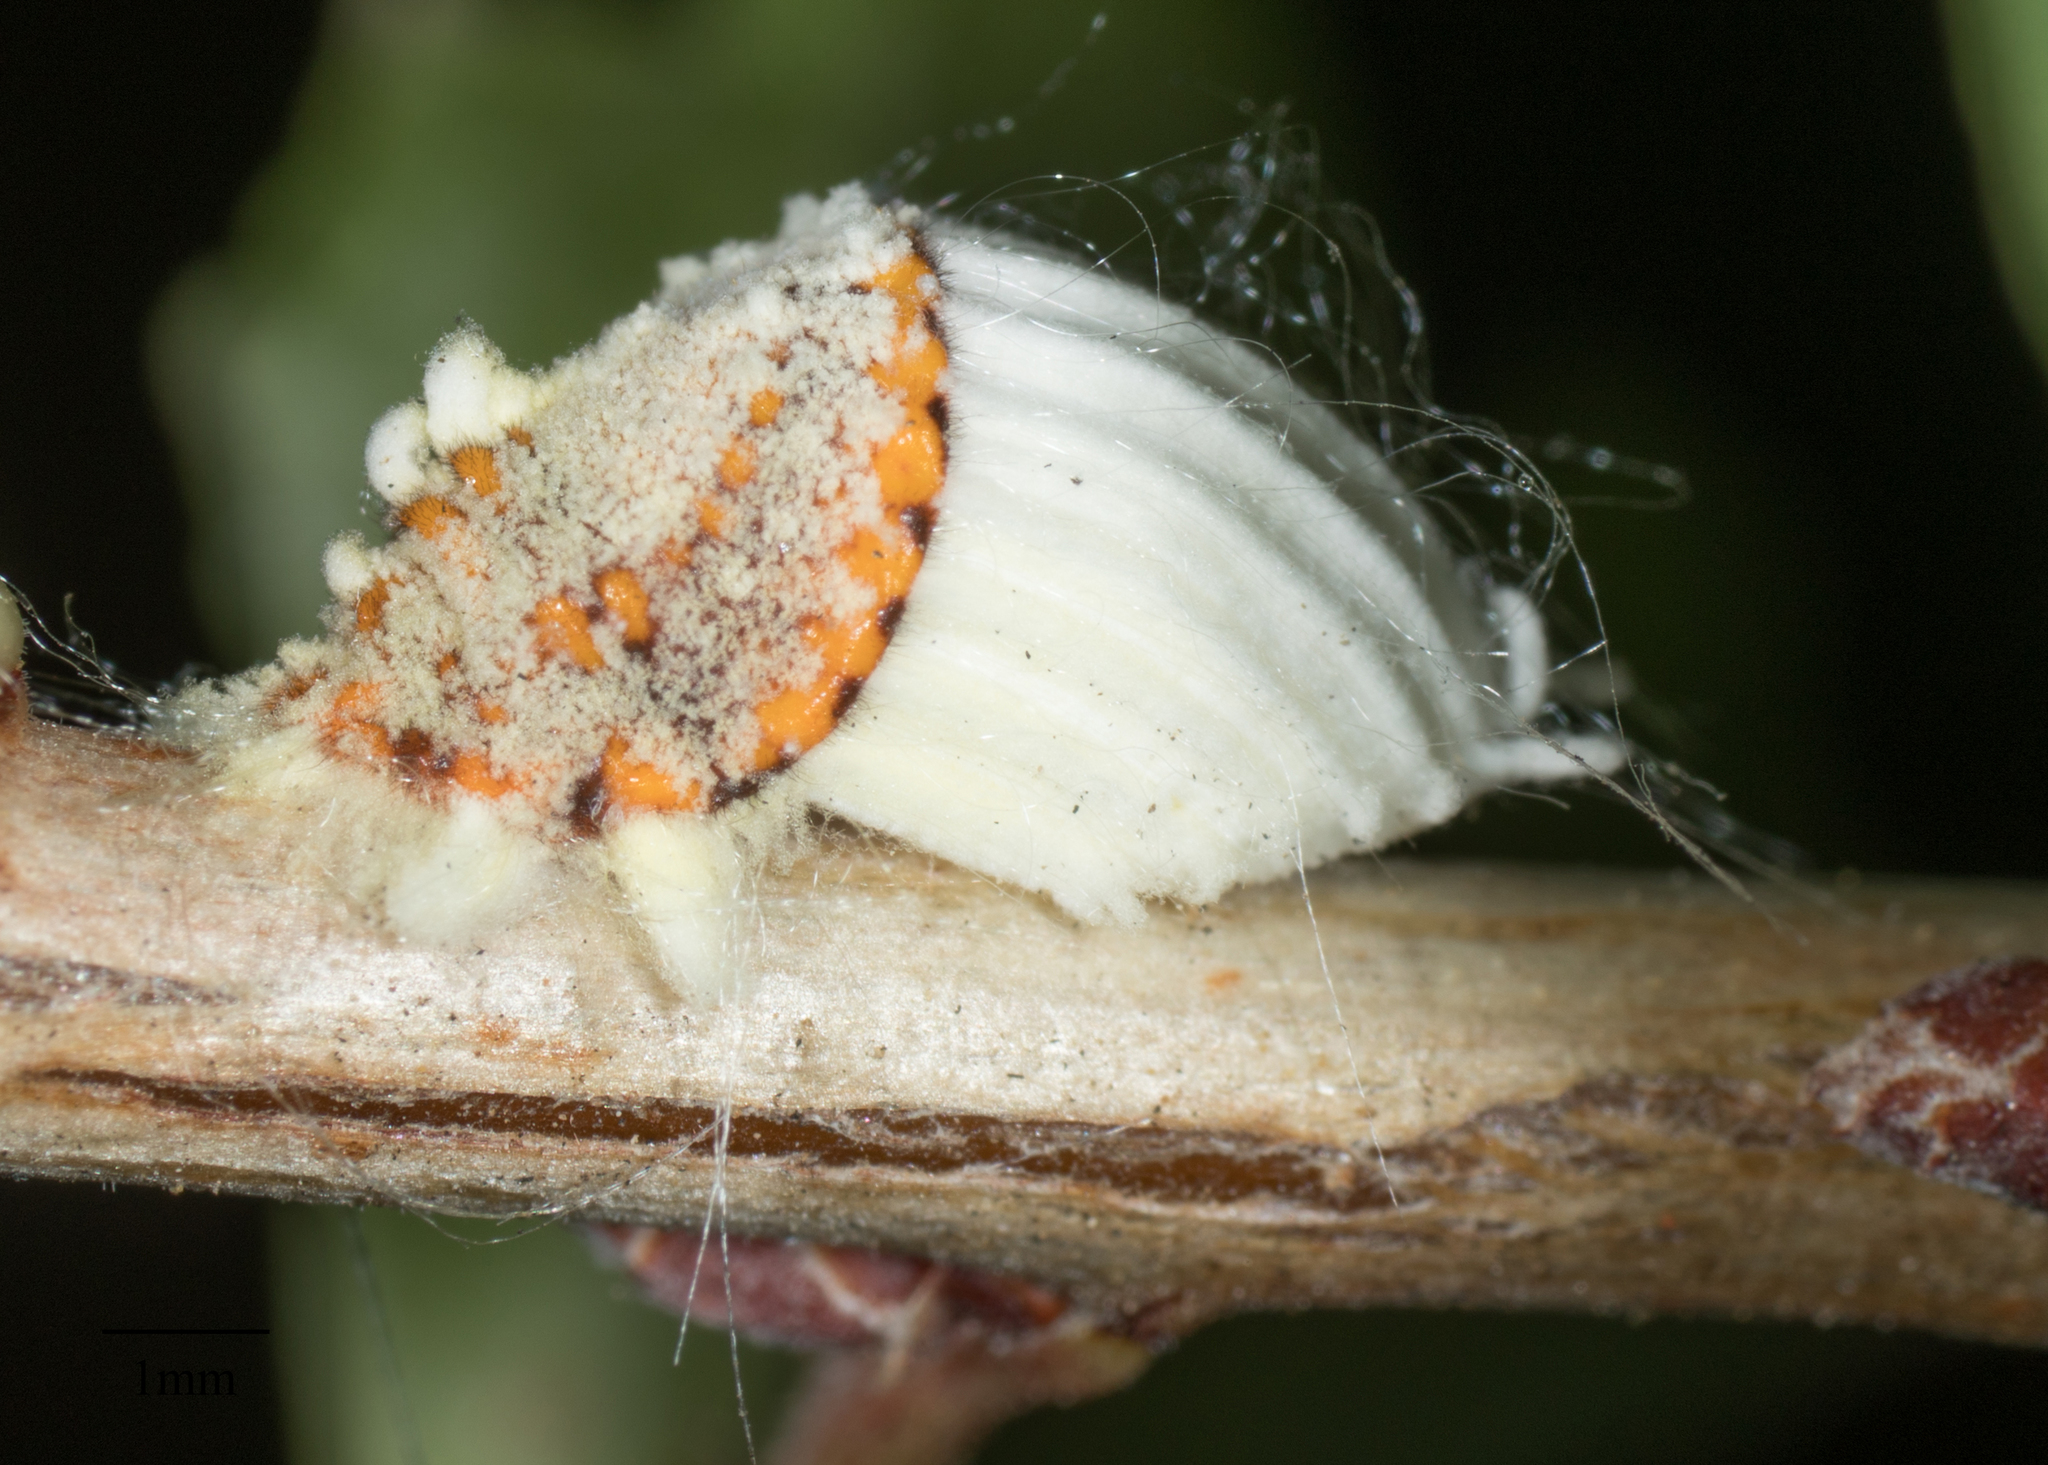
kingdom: Animalia
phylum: Arthropoda
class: Insecta
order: Hemiptera
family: Margarodidae
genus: Icerya
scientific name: Icerya purchasi
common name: Cottony cushion scale
